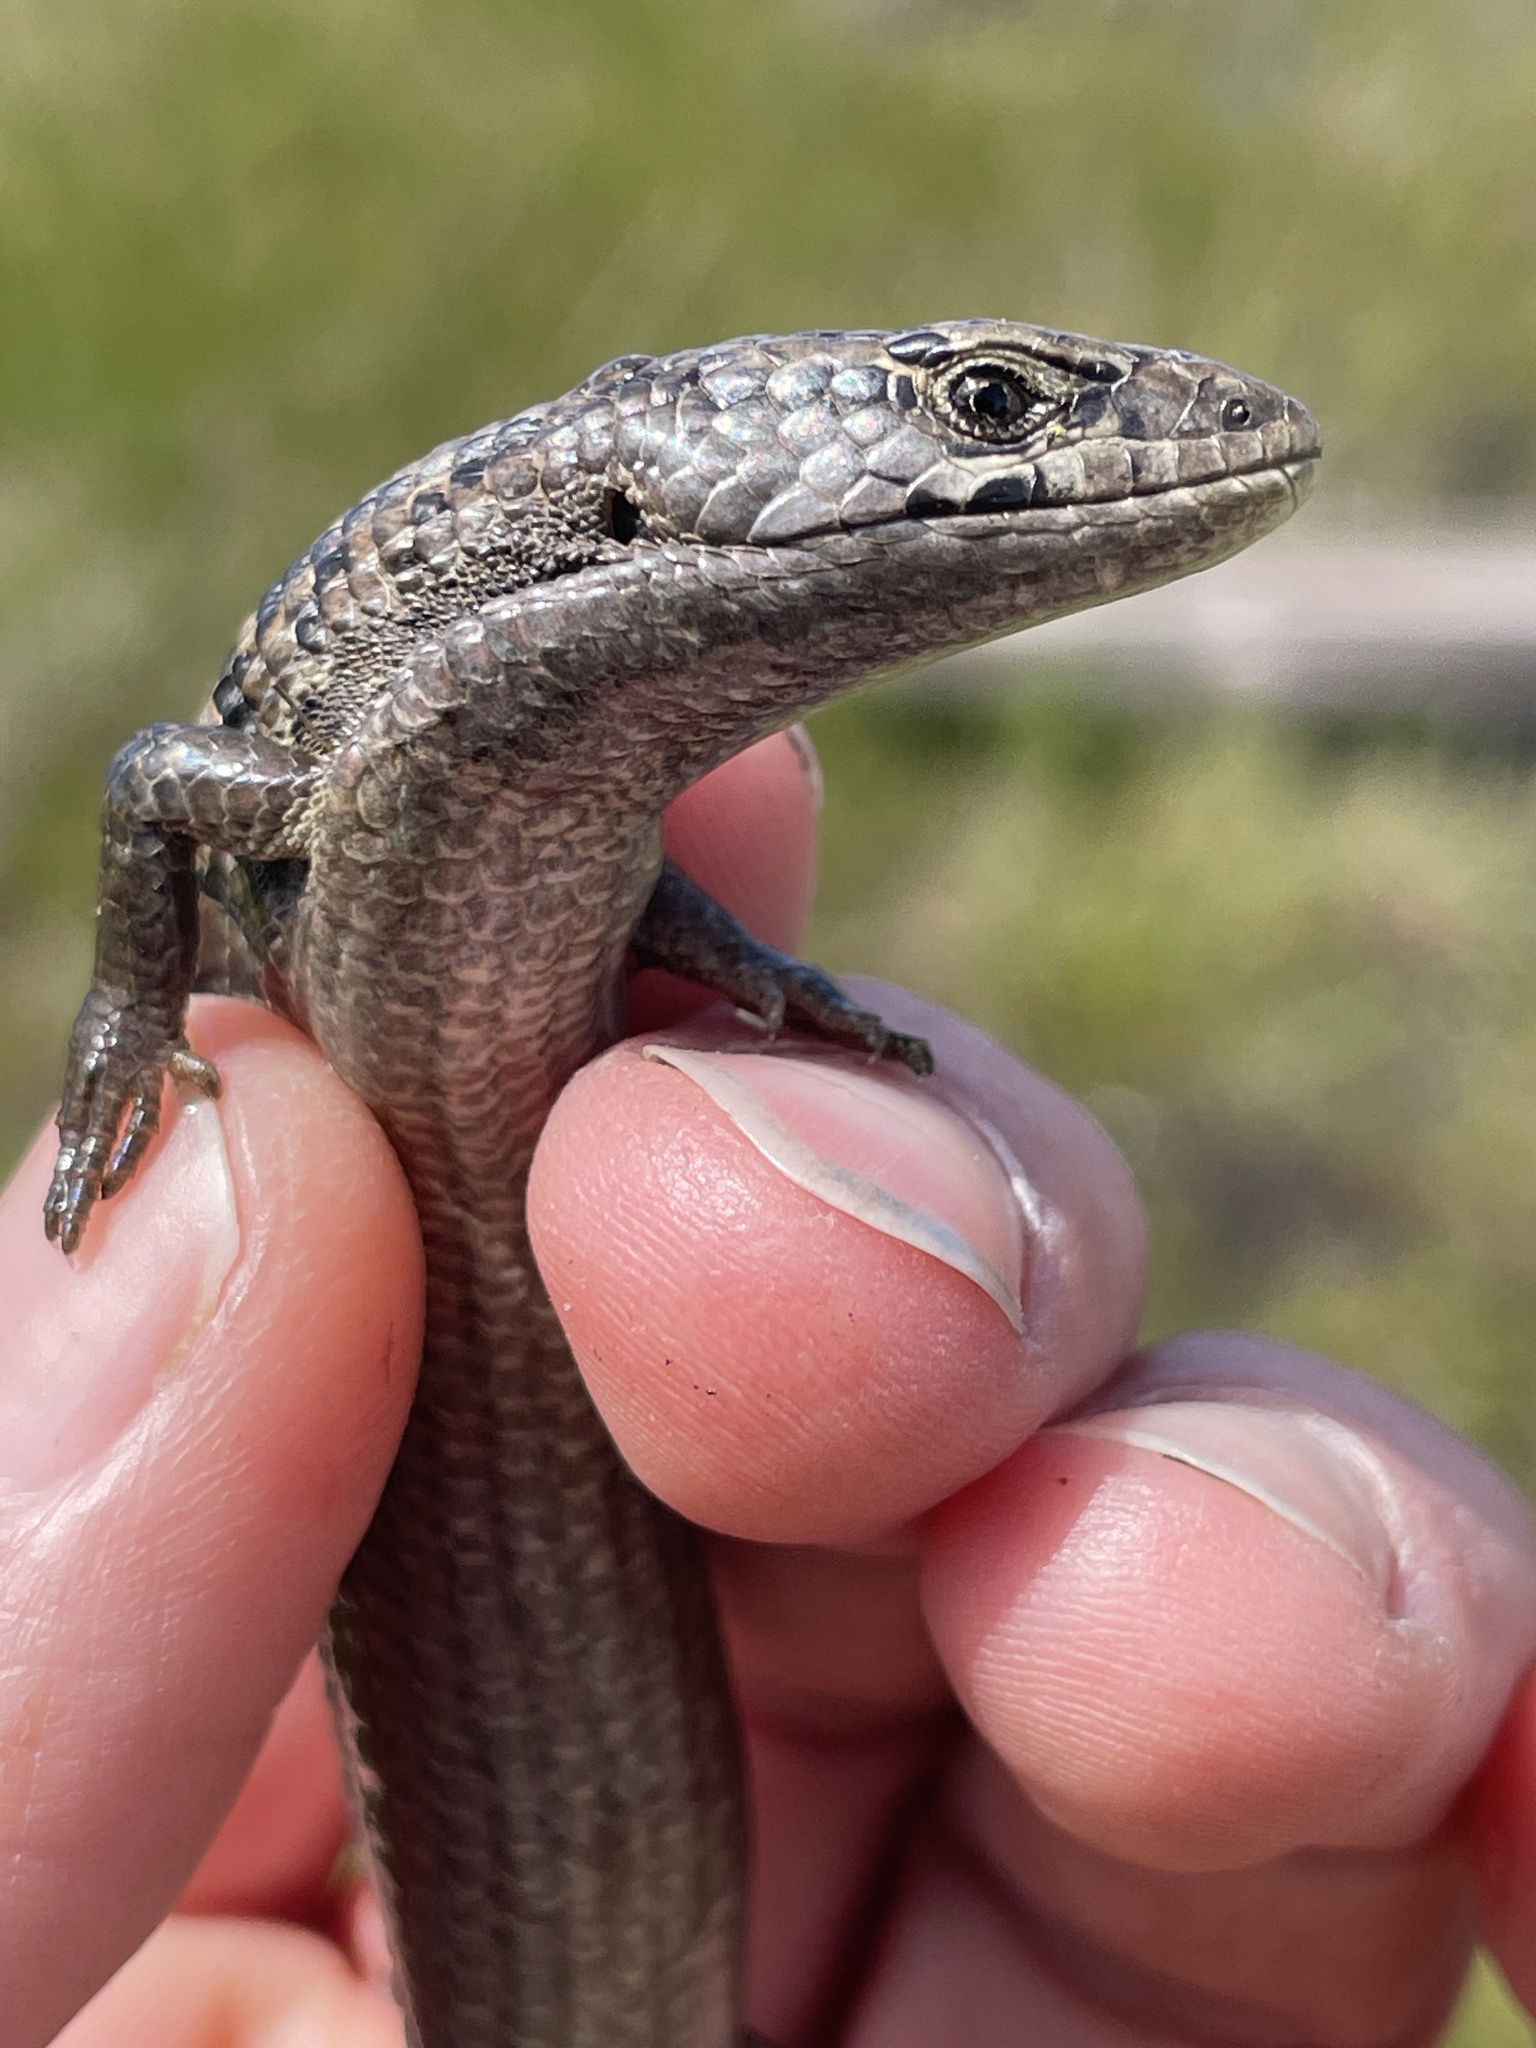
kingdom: Animalia
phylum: Chordata
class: Squamata
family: Anguidae
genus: Elgaria
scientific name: Elgaria coerulea
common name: Northern alligator lizard
